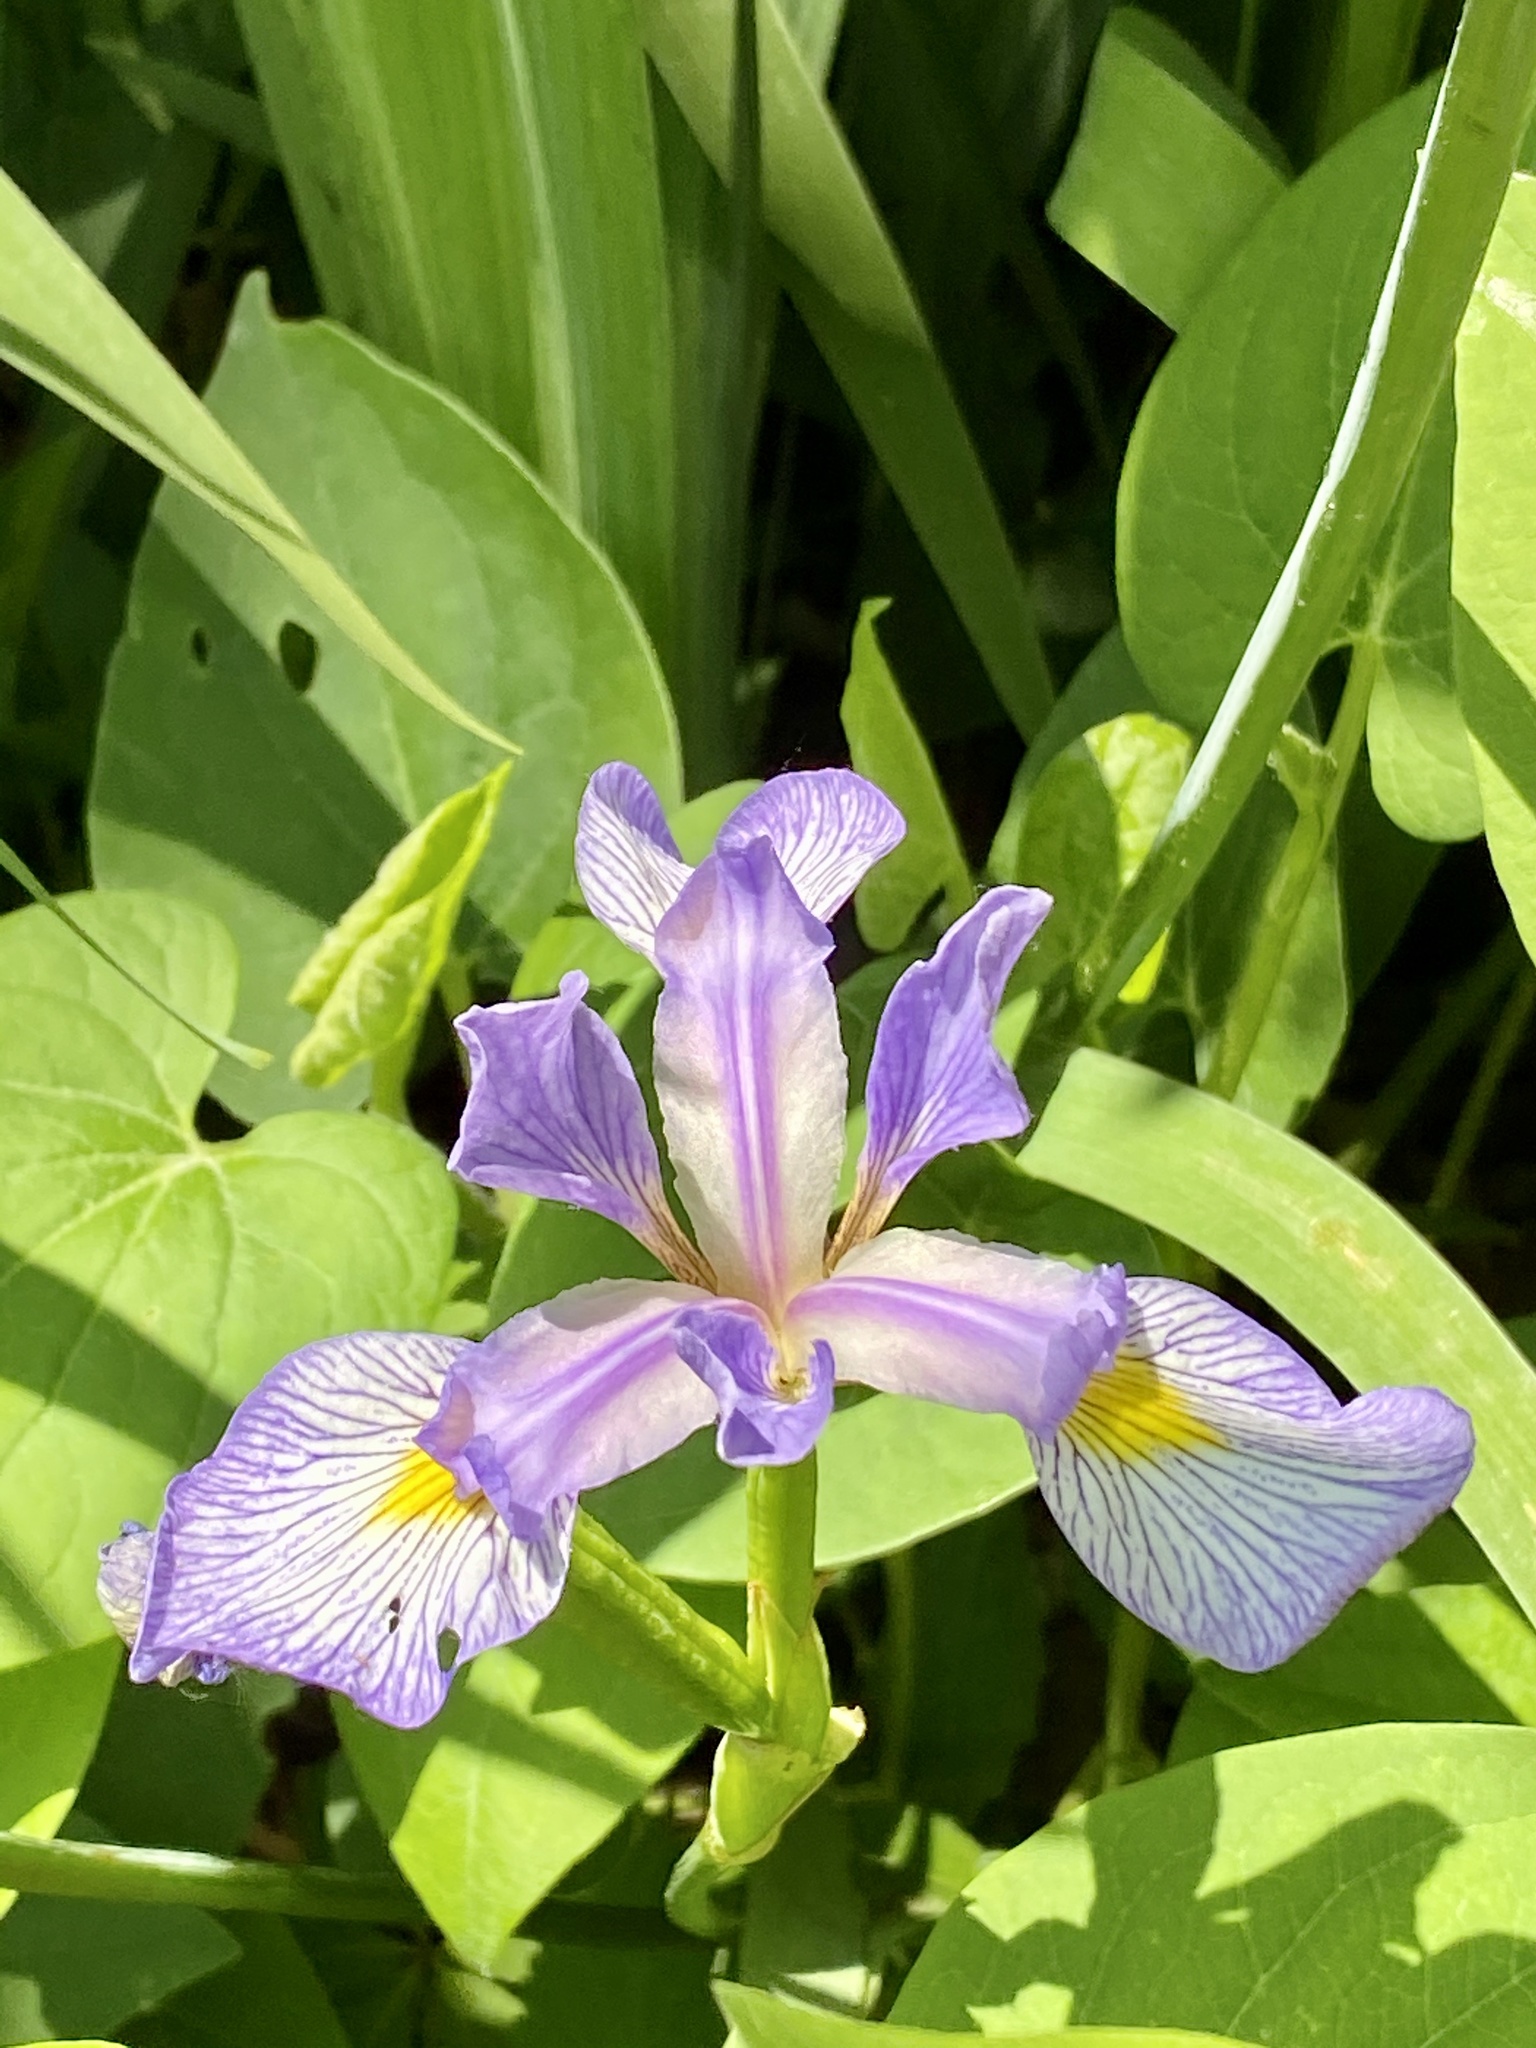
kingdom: Plantae
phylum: Tracheophyta
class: Liliopsida
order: Asparagales
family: Iridaceae
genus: Iris
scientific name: Iris virginica
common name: Southern blue flag
